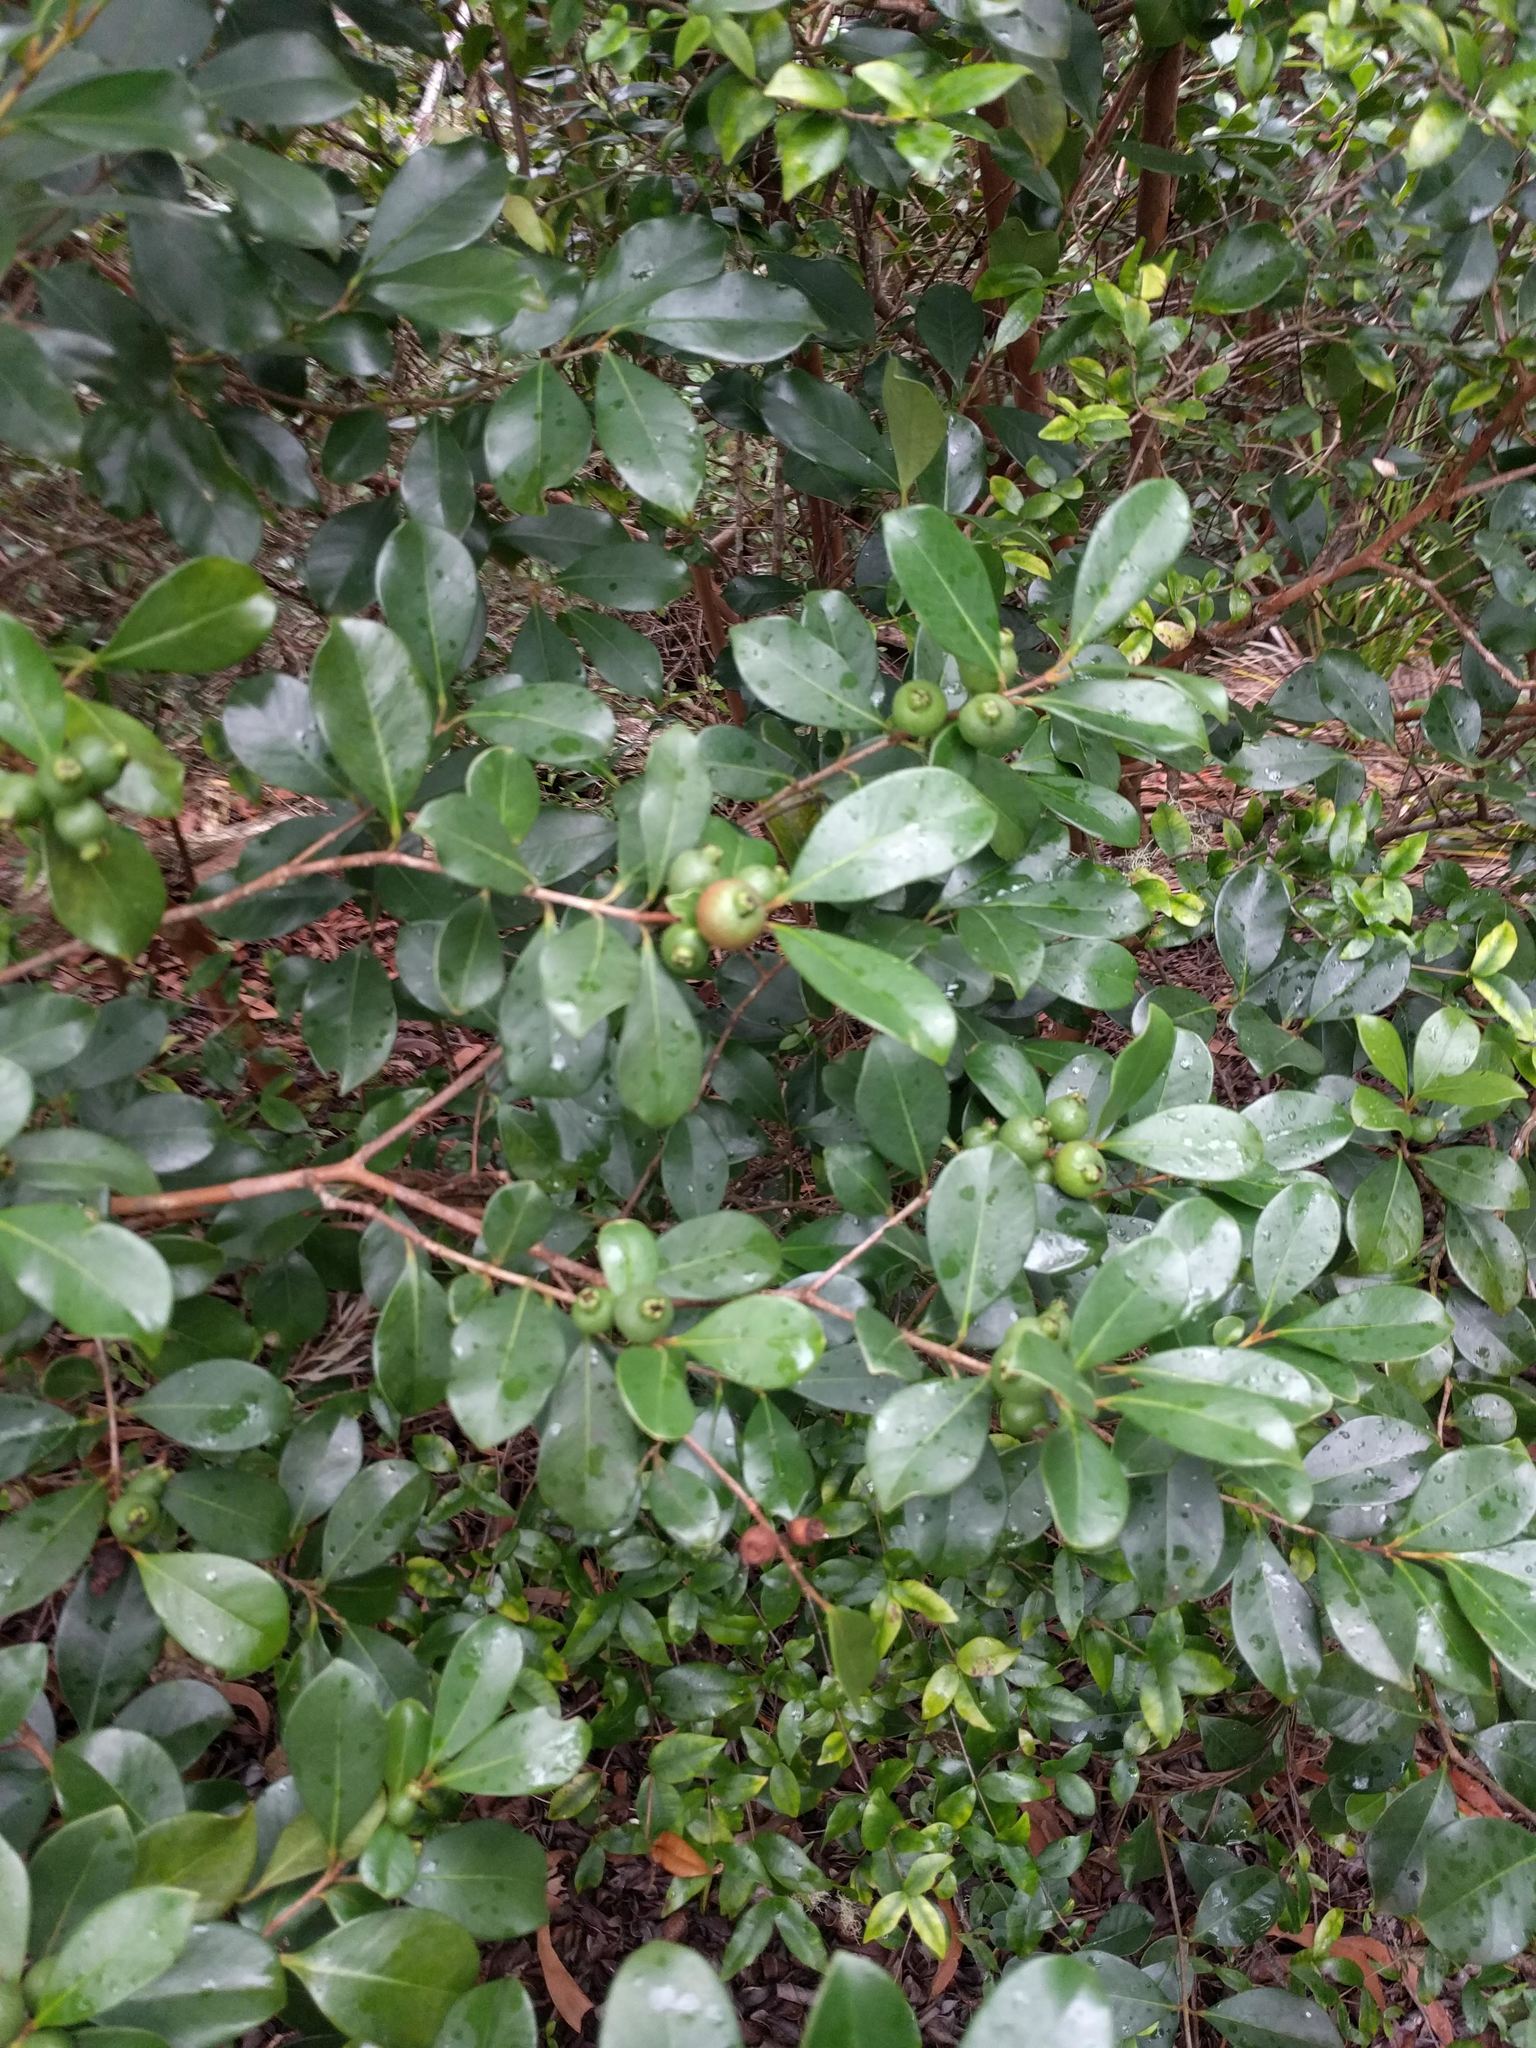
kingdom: Plantae
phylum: Tracheophyta
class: Magnoliopsida
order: Myrtales
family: Myrtaceae
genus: Psidium
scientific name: Psidium cattleianum
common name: Strawberry guava
